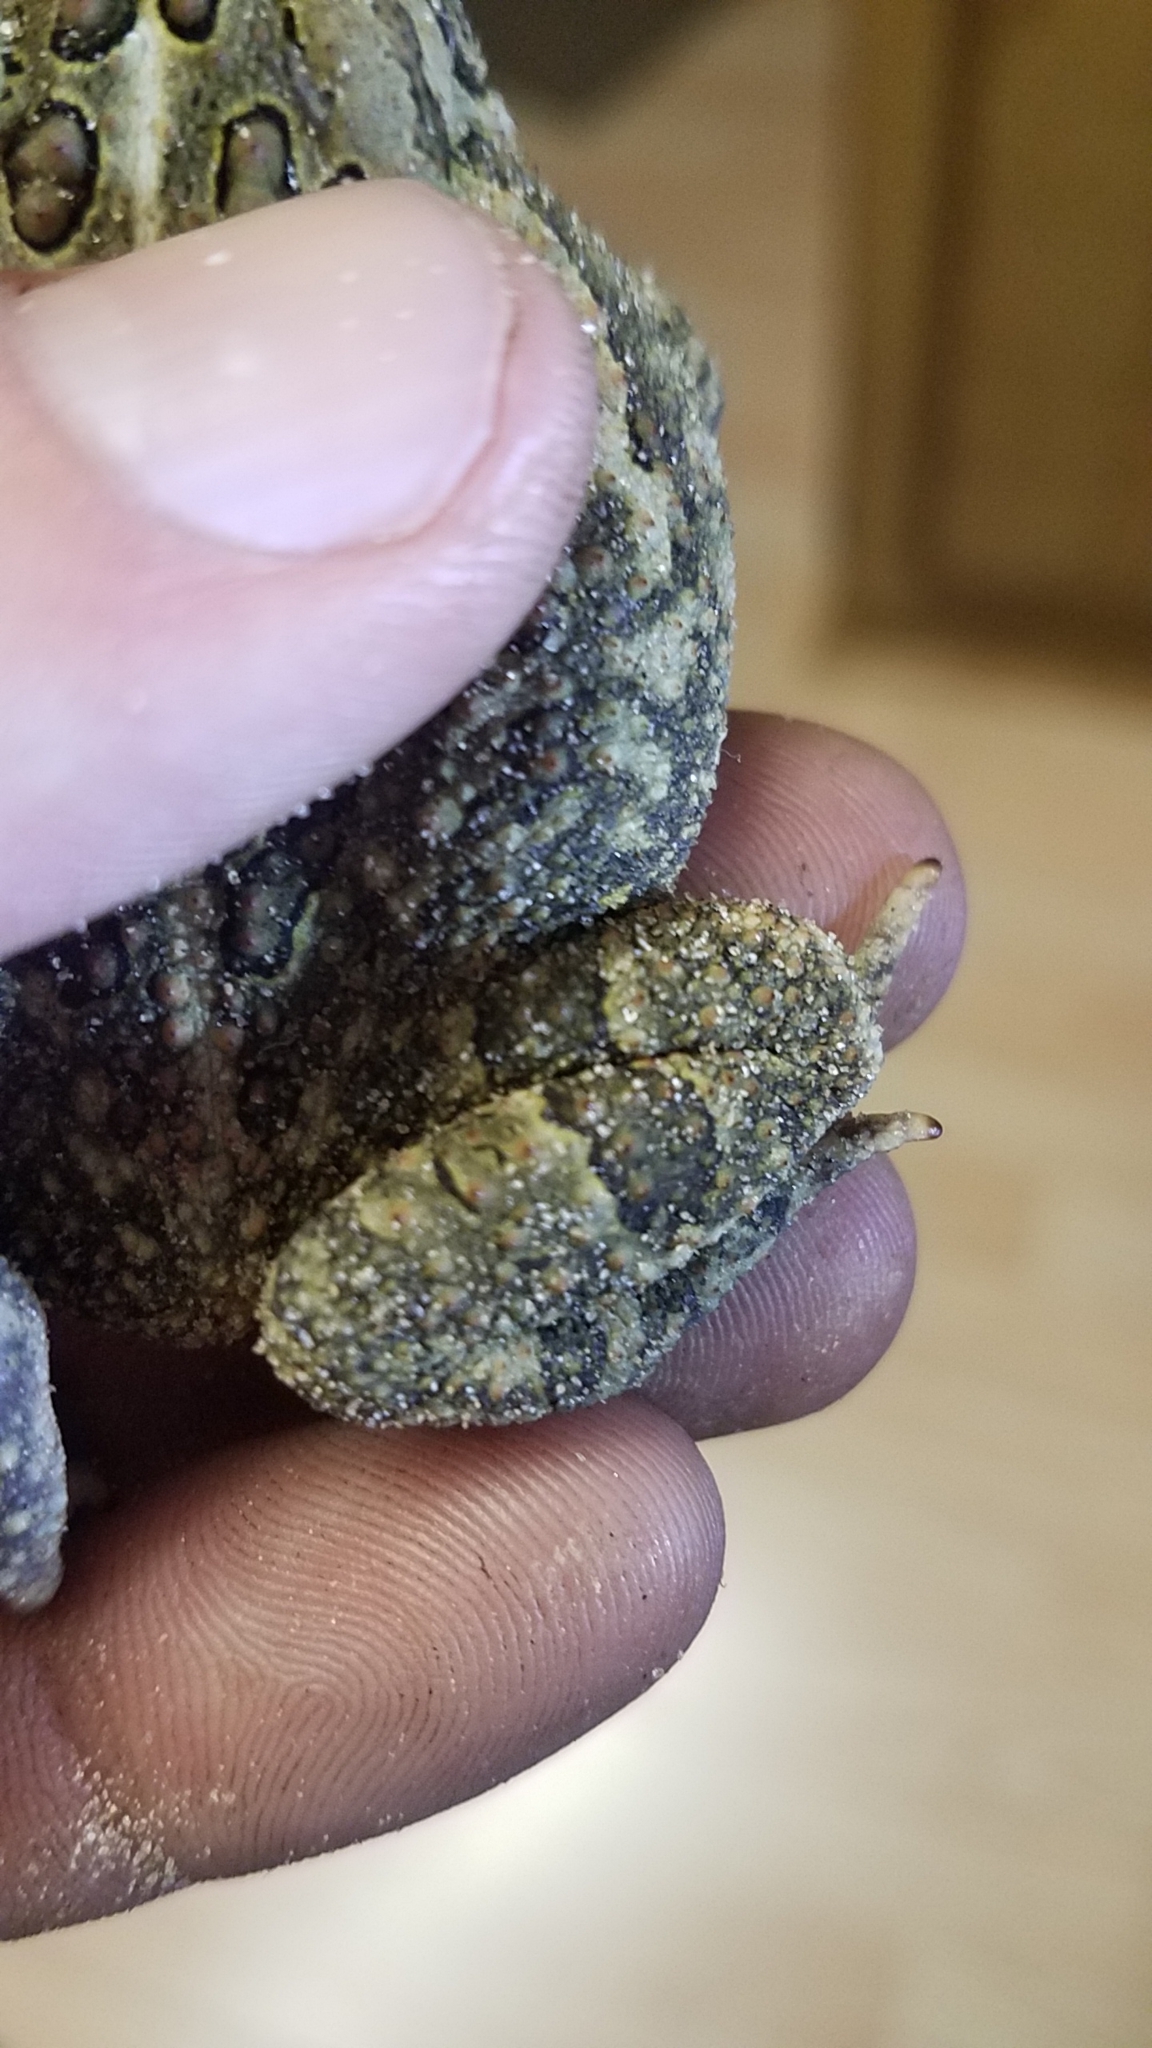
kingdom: Animalia
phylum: Chordata
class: Amphibia
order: Anura
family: Bufonidae
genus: Anaxyrus
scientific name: Anaxyrus fowleri
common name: Fowler's toad
